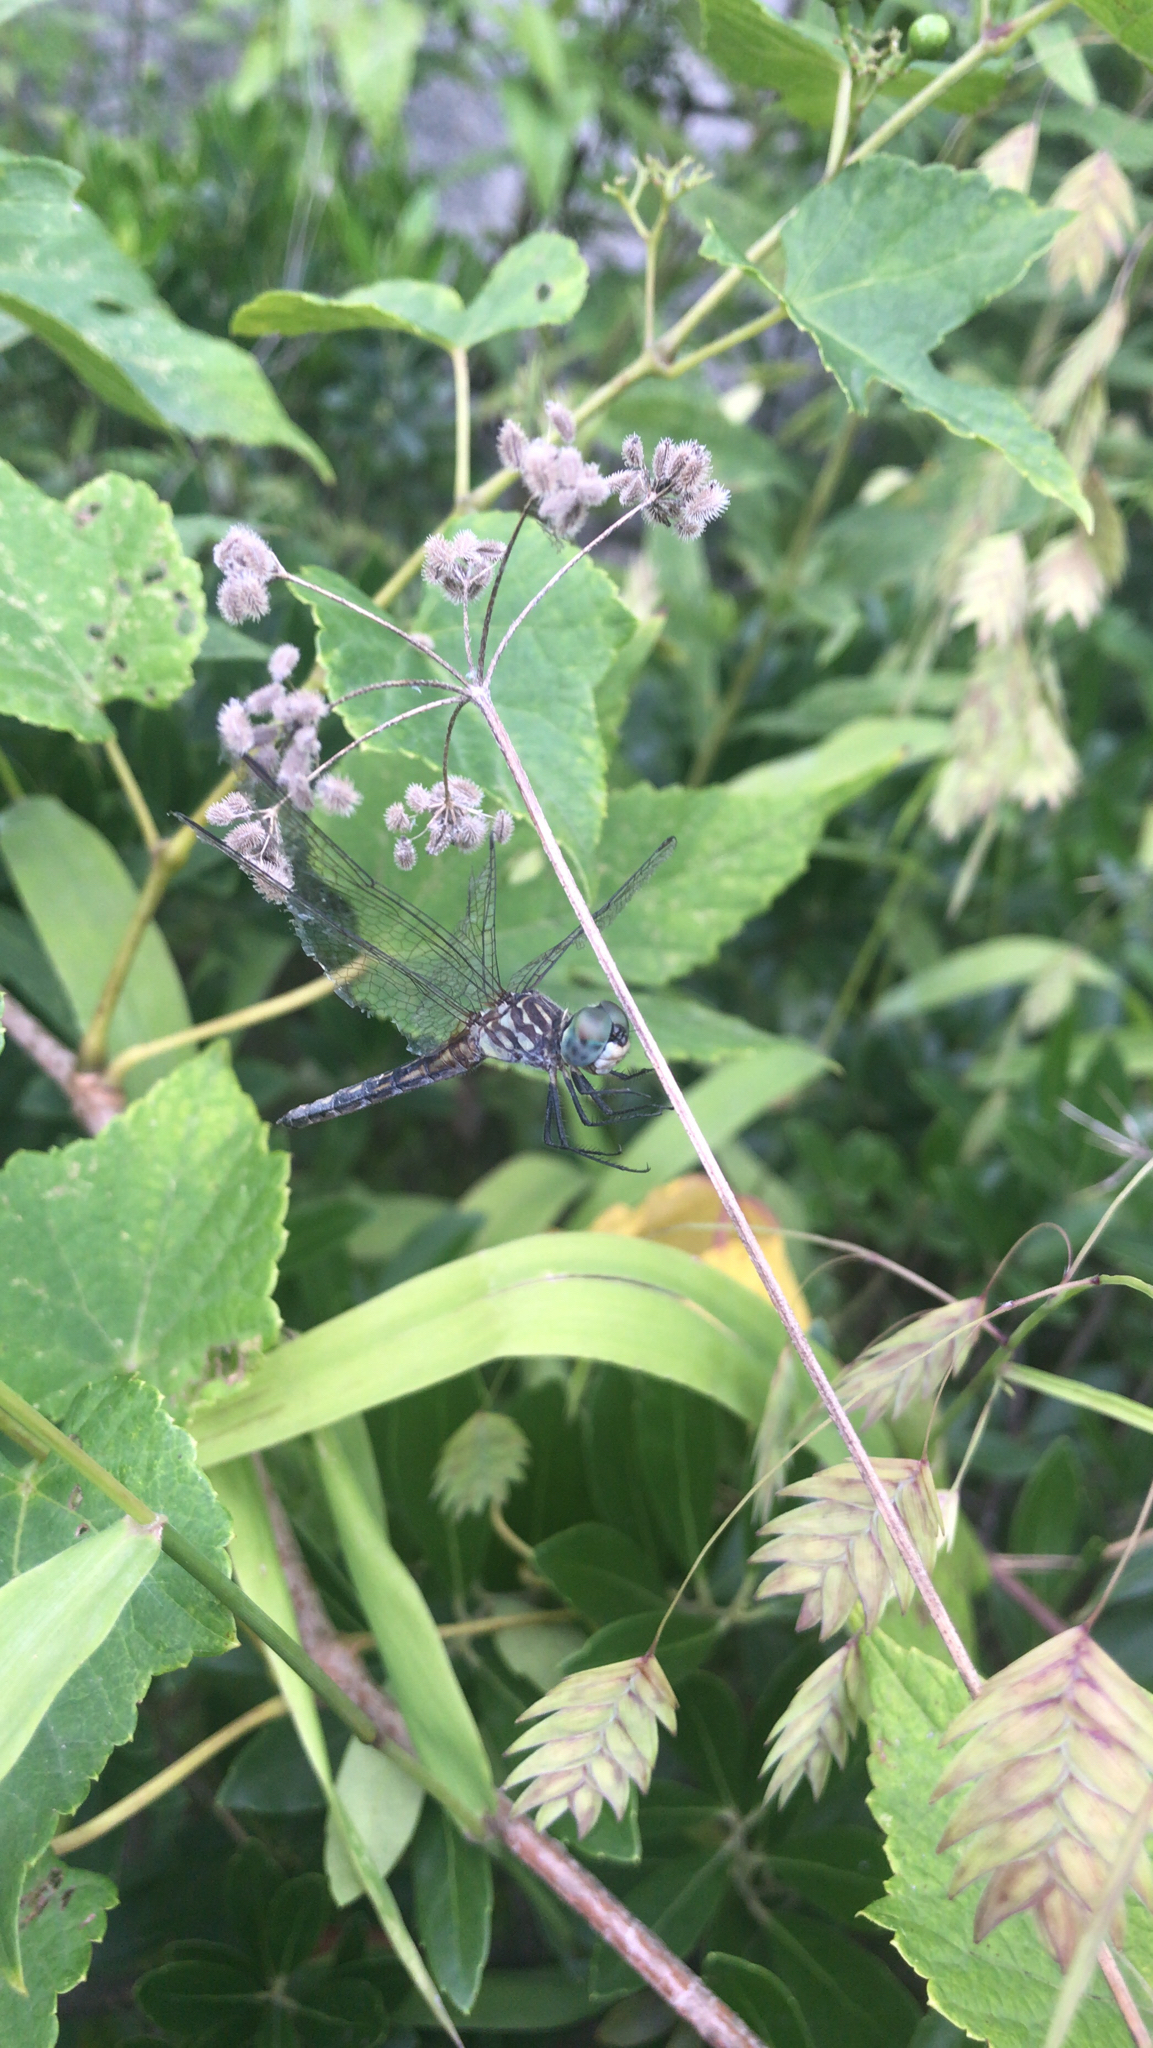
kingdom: Animalia
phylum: Arthropoda
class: Insecta
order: Odonata
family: Libellulidae
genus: Pachydiplax
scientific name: Pachydiplax longipennis
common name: Blue dasher
